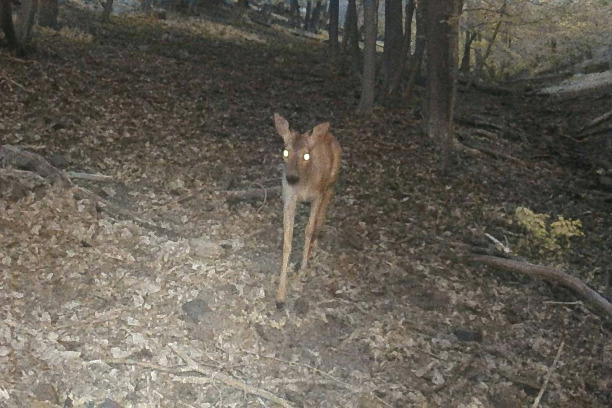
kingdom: Animalia
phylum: Chordata
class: Mammalia
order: Artiodactyla
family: Cervidae
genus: Capreolus
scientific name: Capreolus capreolus
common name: Western roe deer
